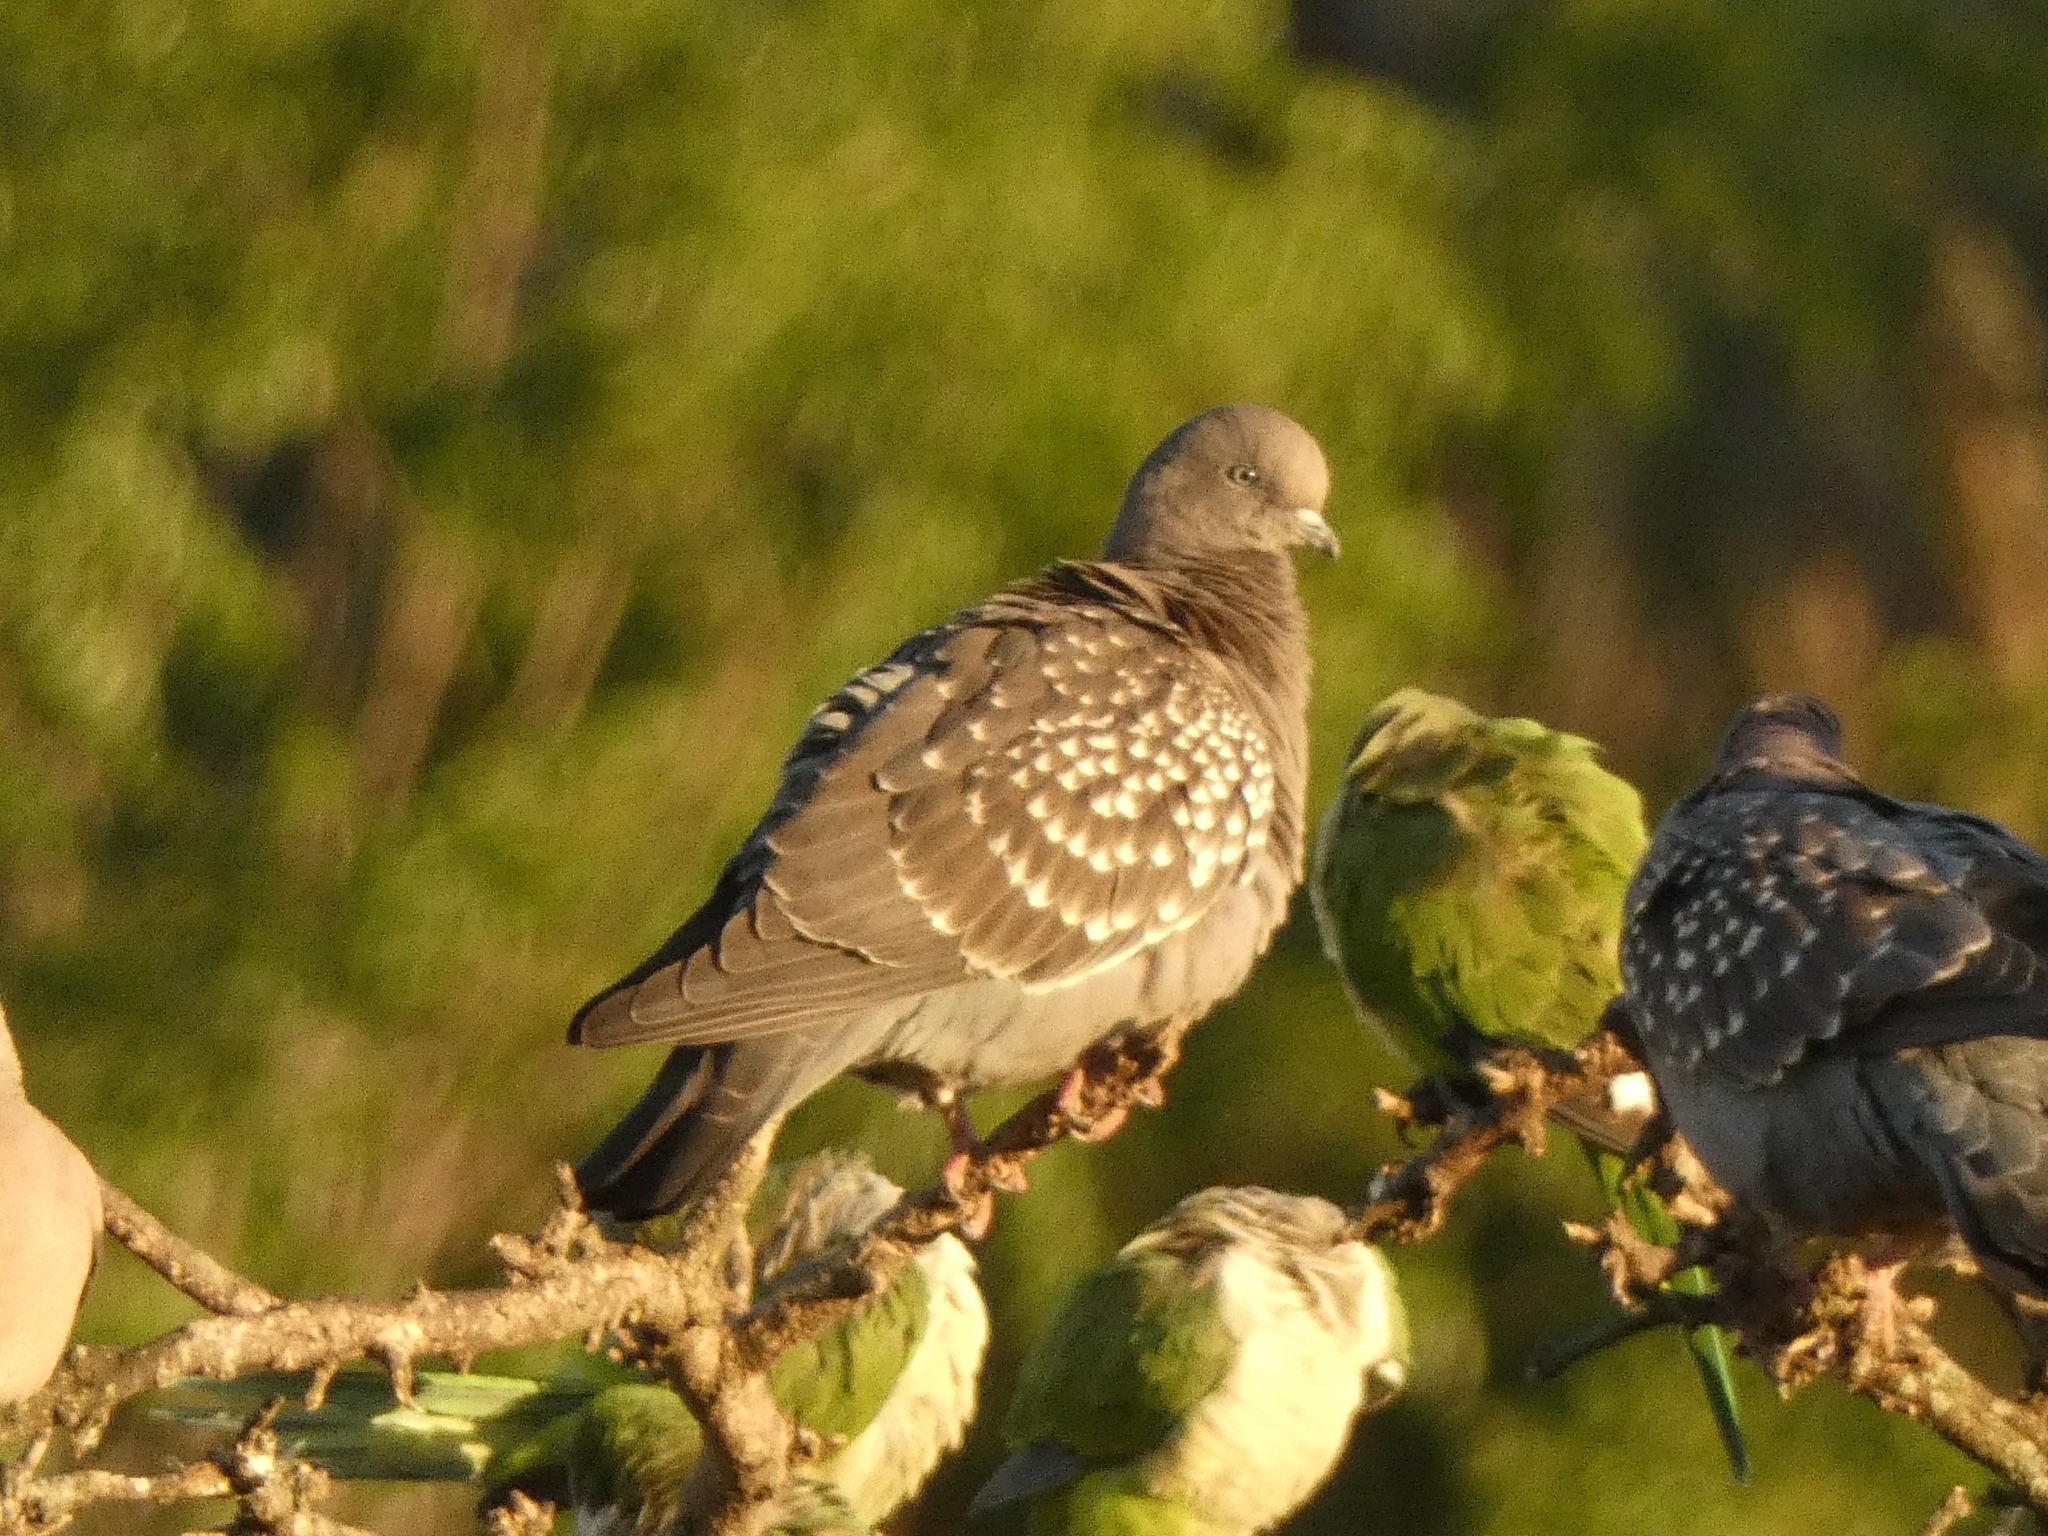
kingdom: Animalia
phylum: Chordata
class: Aves
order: Columbiformes
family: Columbidae
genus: Patagioenas
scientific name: Patagioenas maculosa
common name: Spot-winged pigeon
